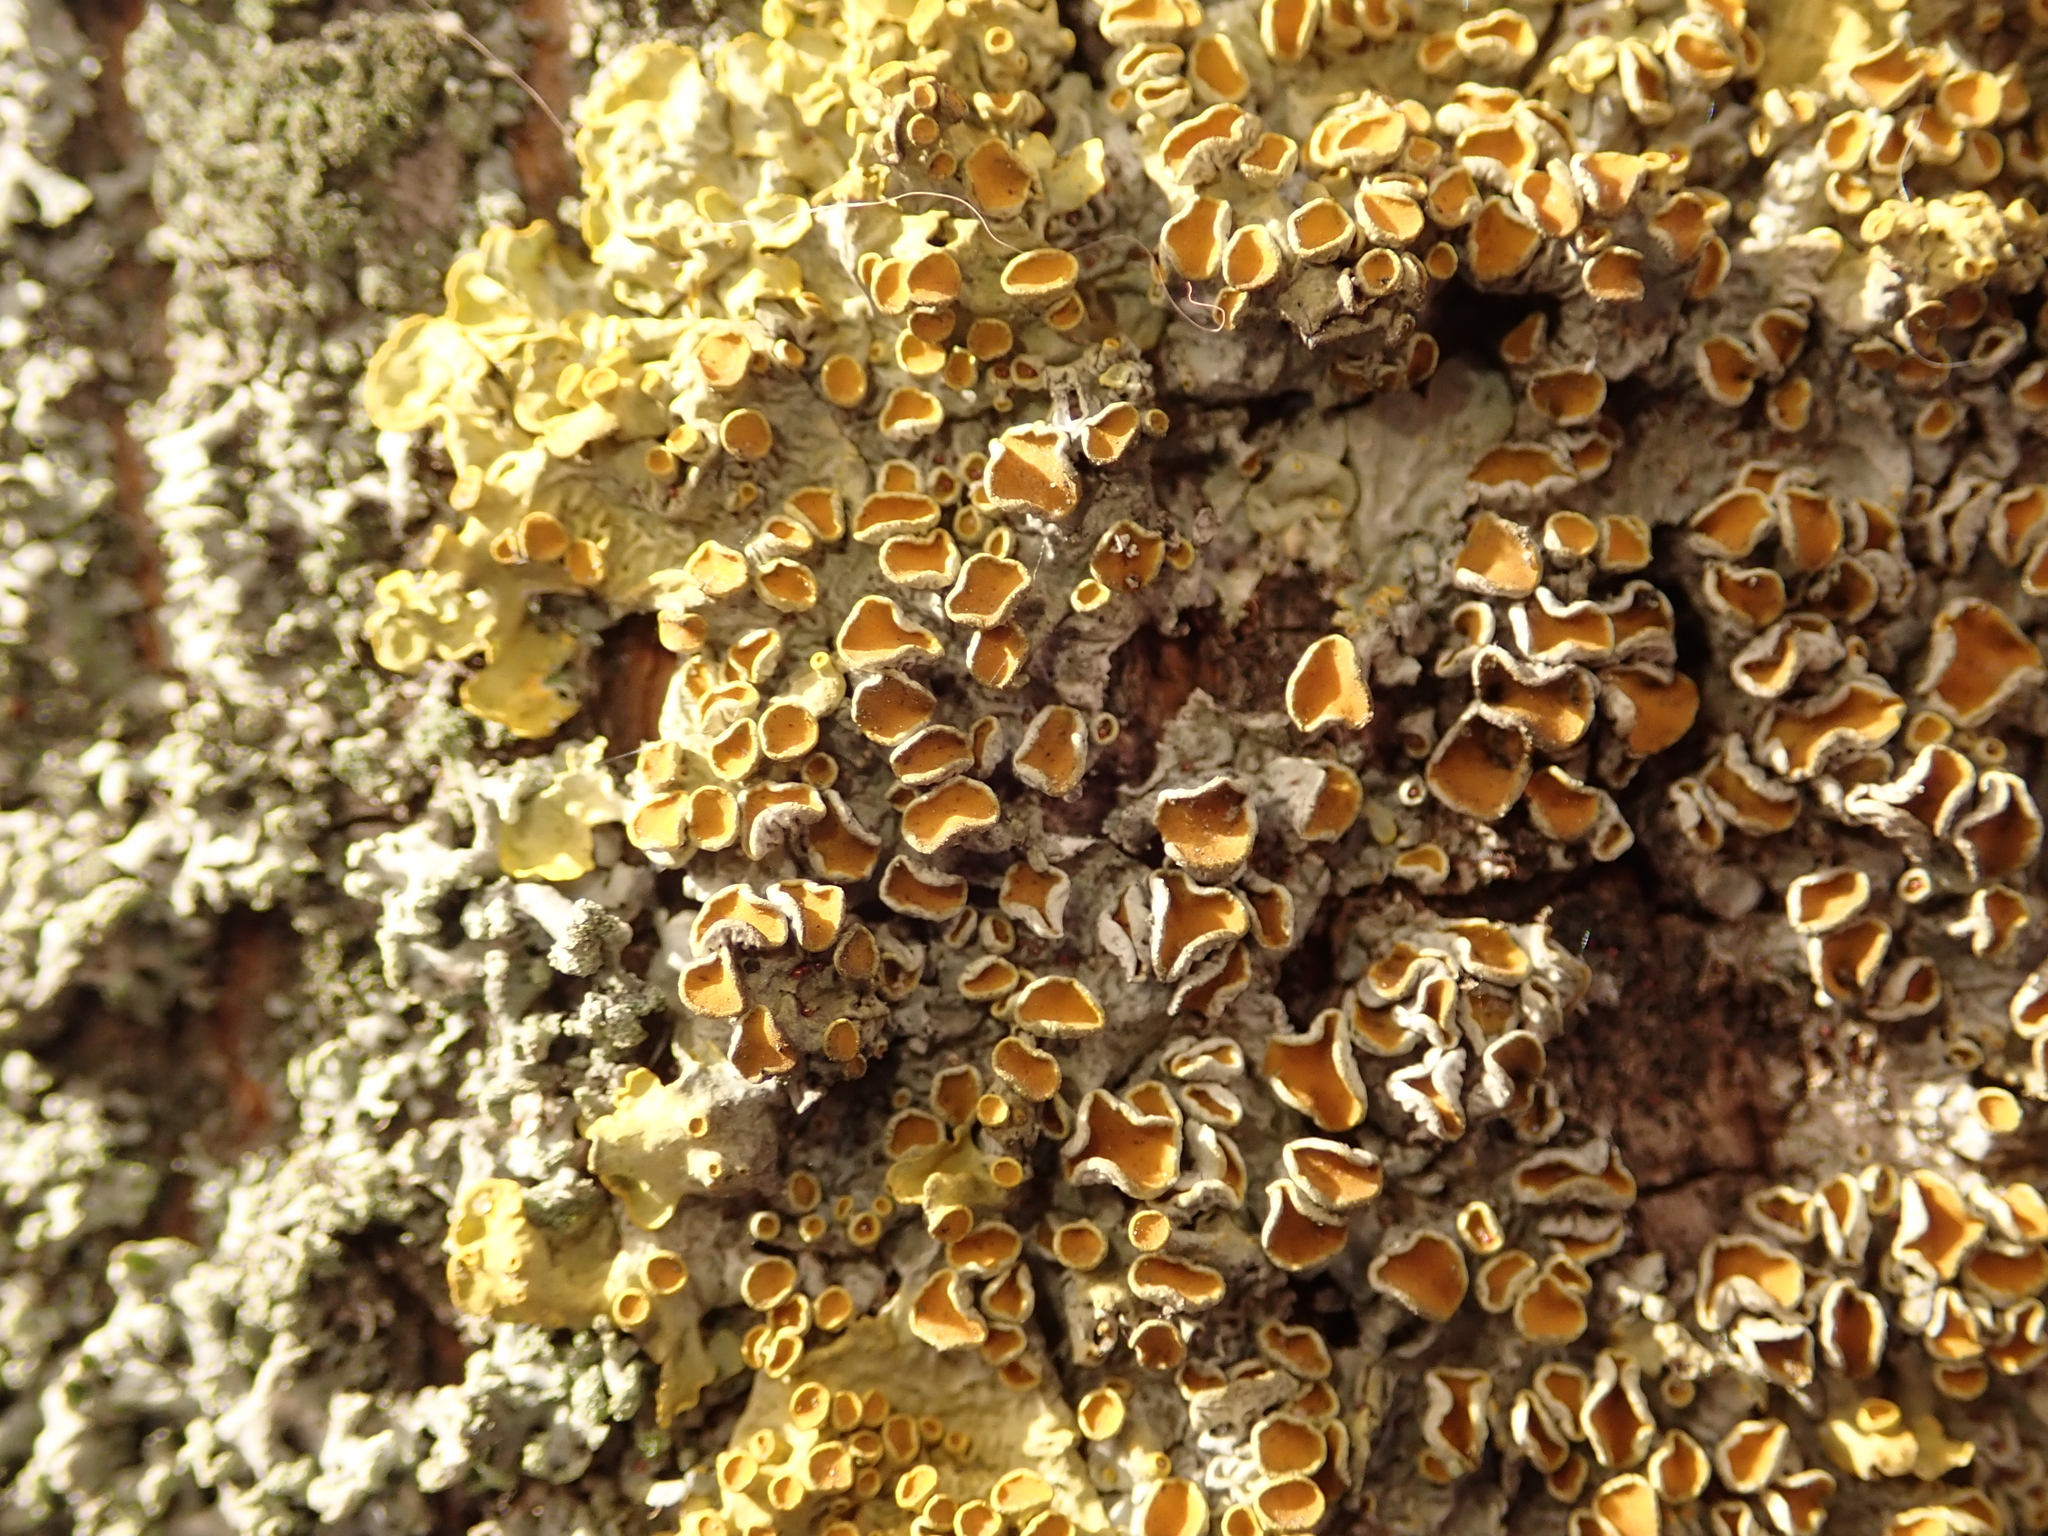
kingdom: Fungi
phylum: Ascomycota
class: Lecanoromycetes
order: Teloschistales
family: Teloschistaceae
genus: Xanthoria
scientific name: Xanthoria parietina
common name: Common orange lichen
